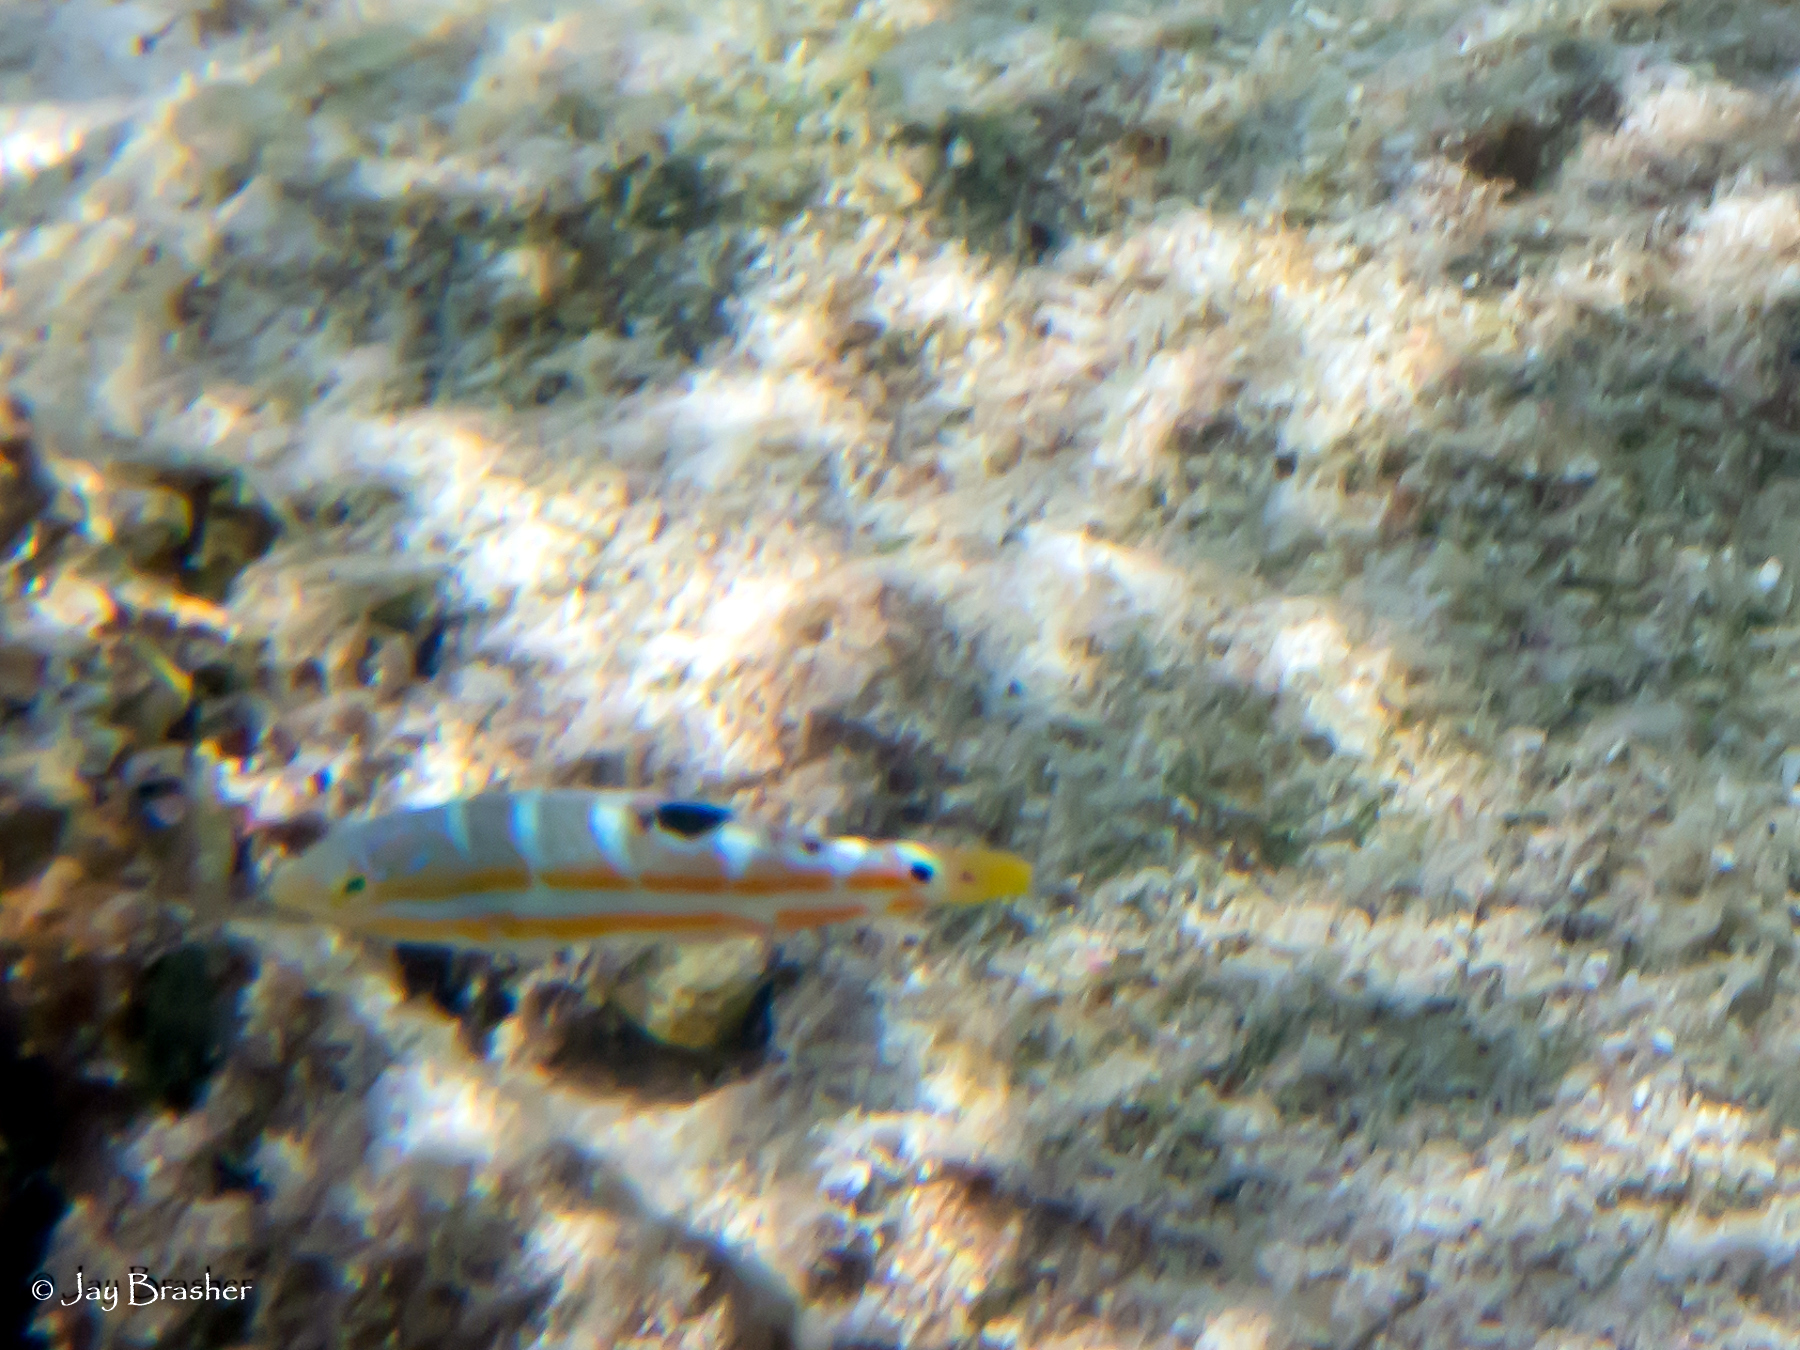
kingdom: Animalia
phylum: Chordata
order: Perciformes
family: Labridae
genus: Halichoeres
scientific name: Halichoeres radiatus
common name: Puddingwife
